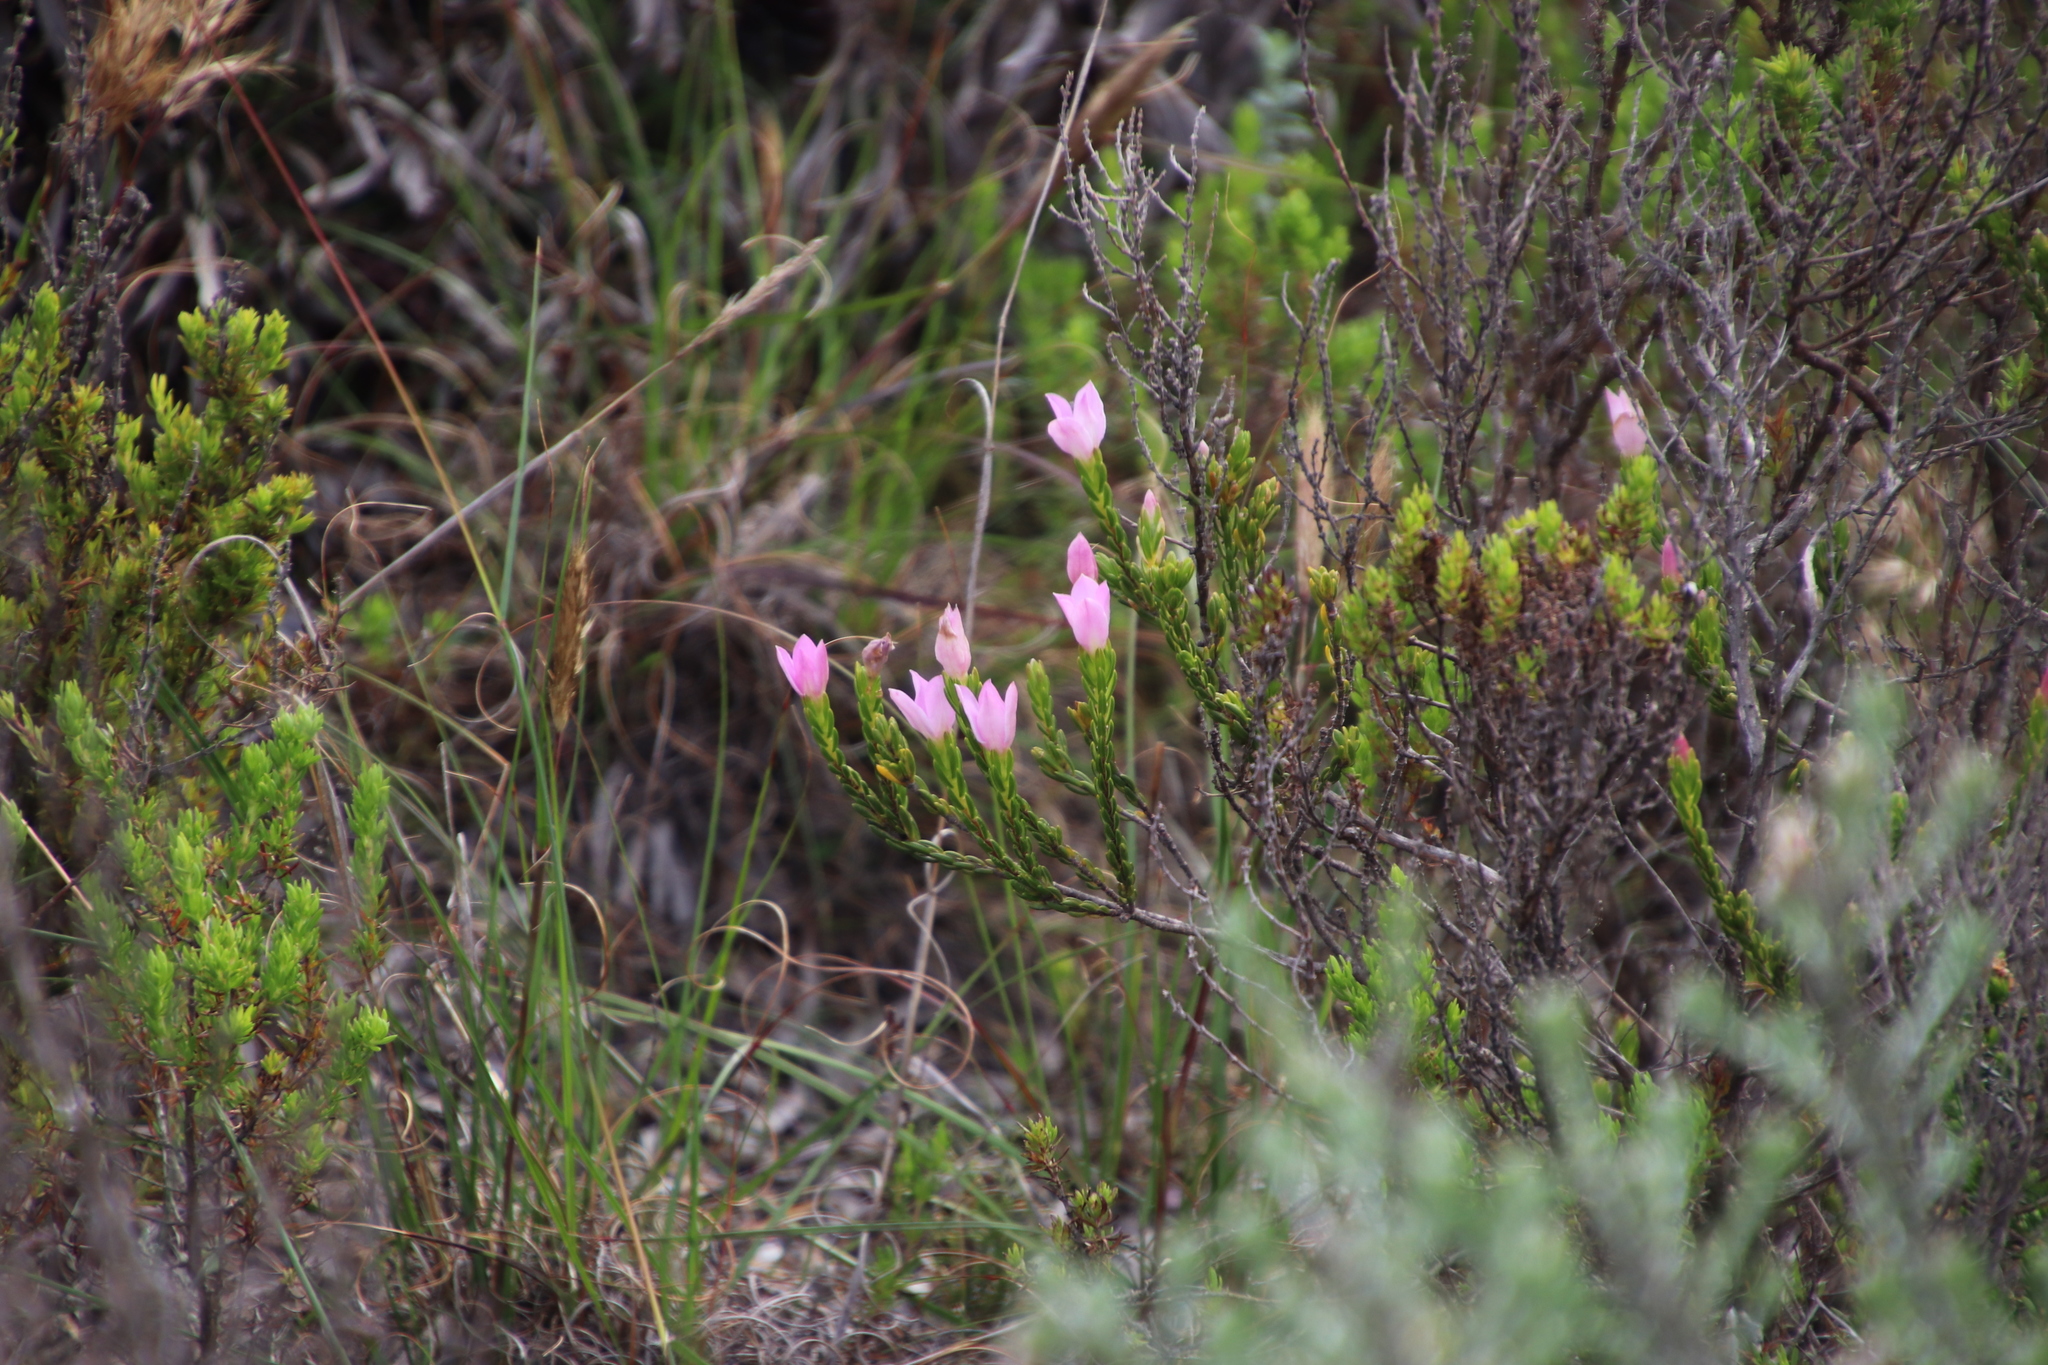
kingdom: Plantae
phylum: Tracheophyta
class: Magnoliopsida
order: Malvales
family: Thymelaeaceae
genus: Lachnaea
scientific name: Lachnaea grandiflora
